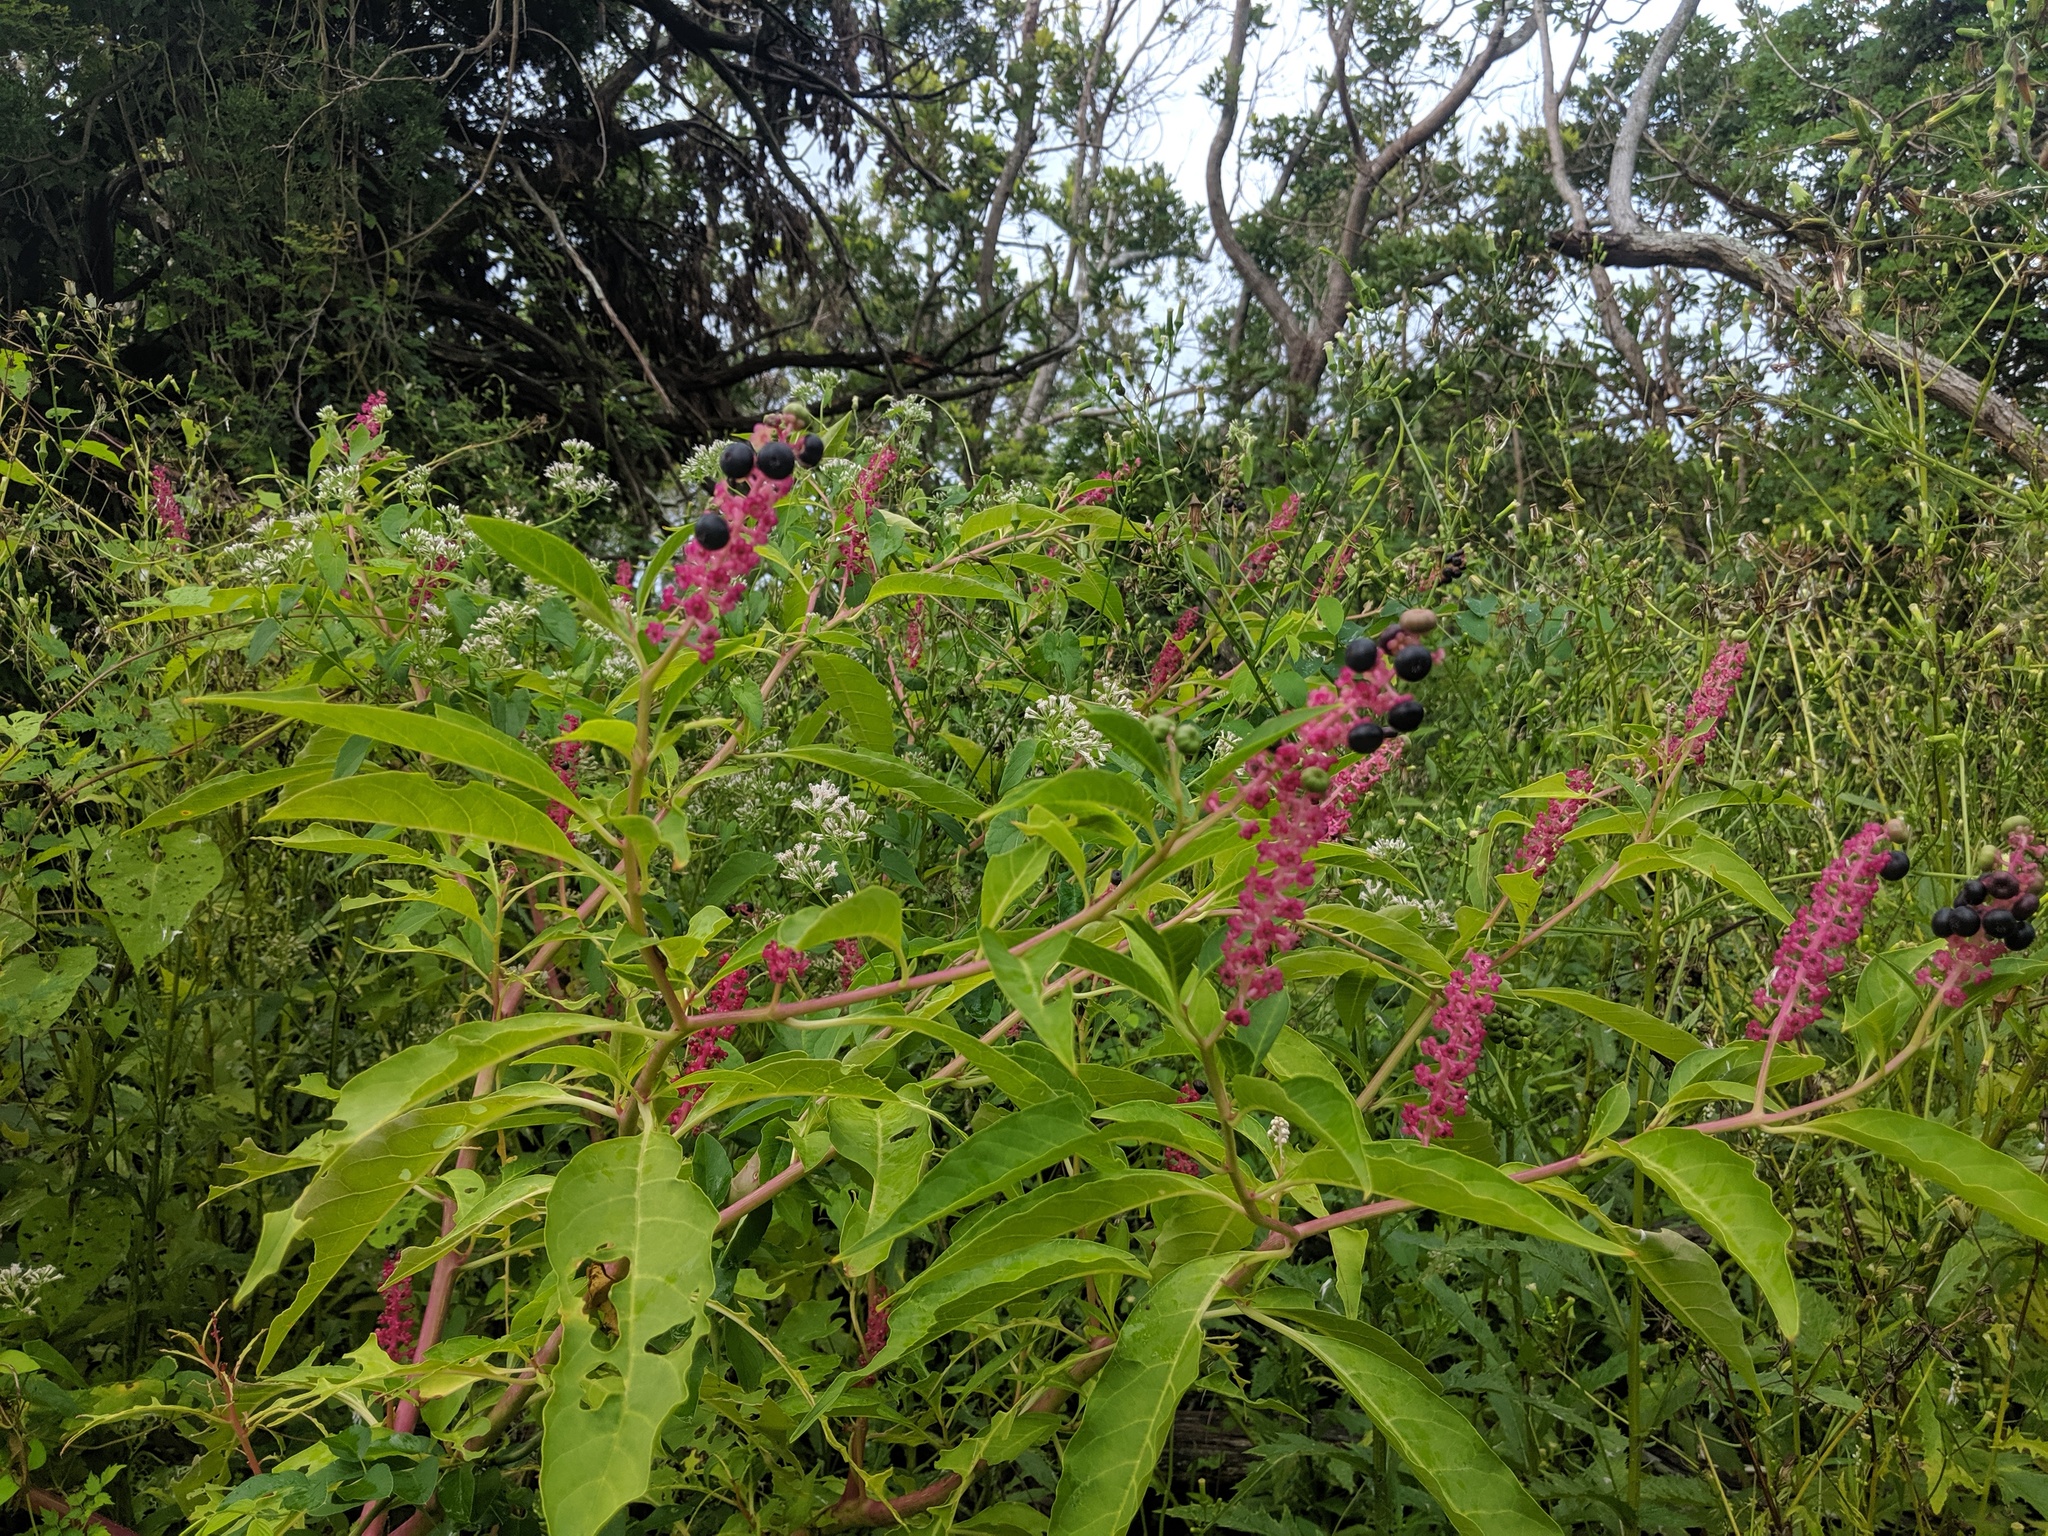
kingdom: Plantae
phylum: Tracheophyta
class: Magnoliopsida
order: Caryophyllales
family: Phytolaccaceae
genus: Phytolacca
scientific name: Phytolacca americana
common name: American pokeweed
